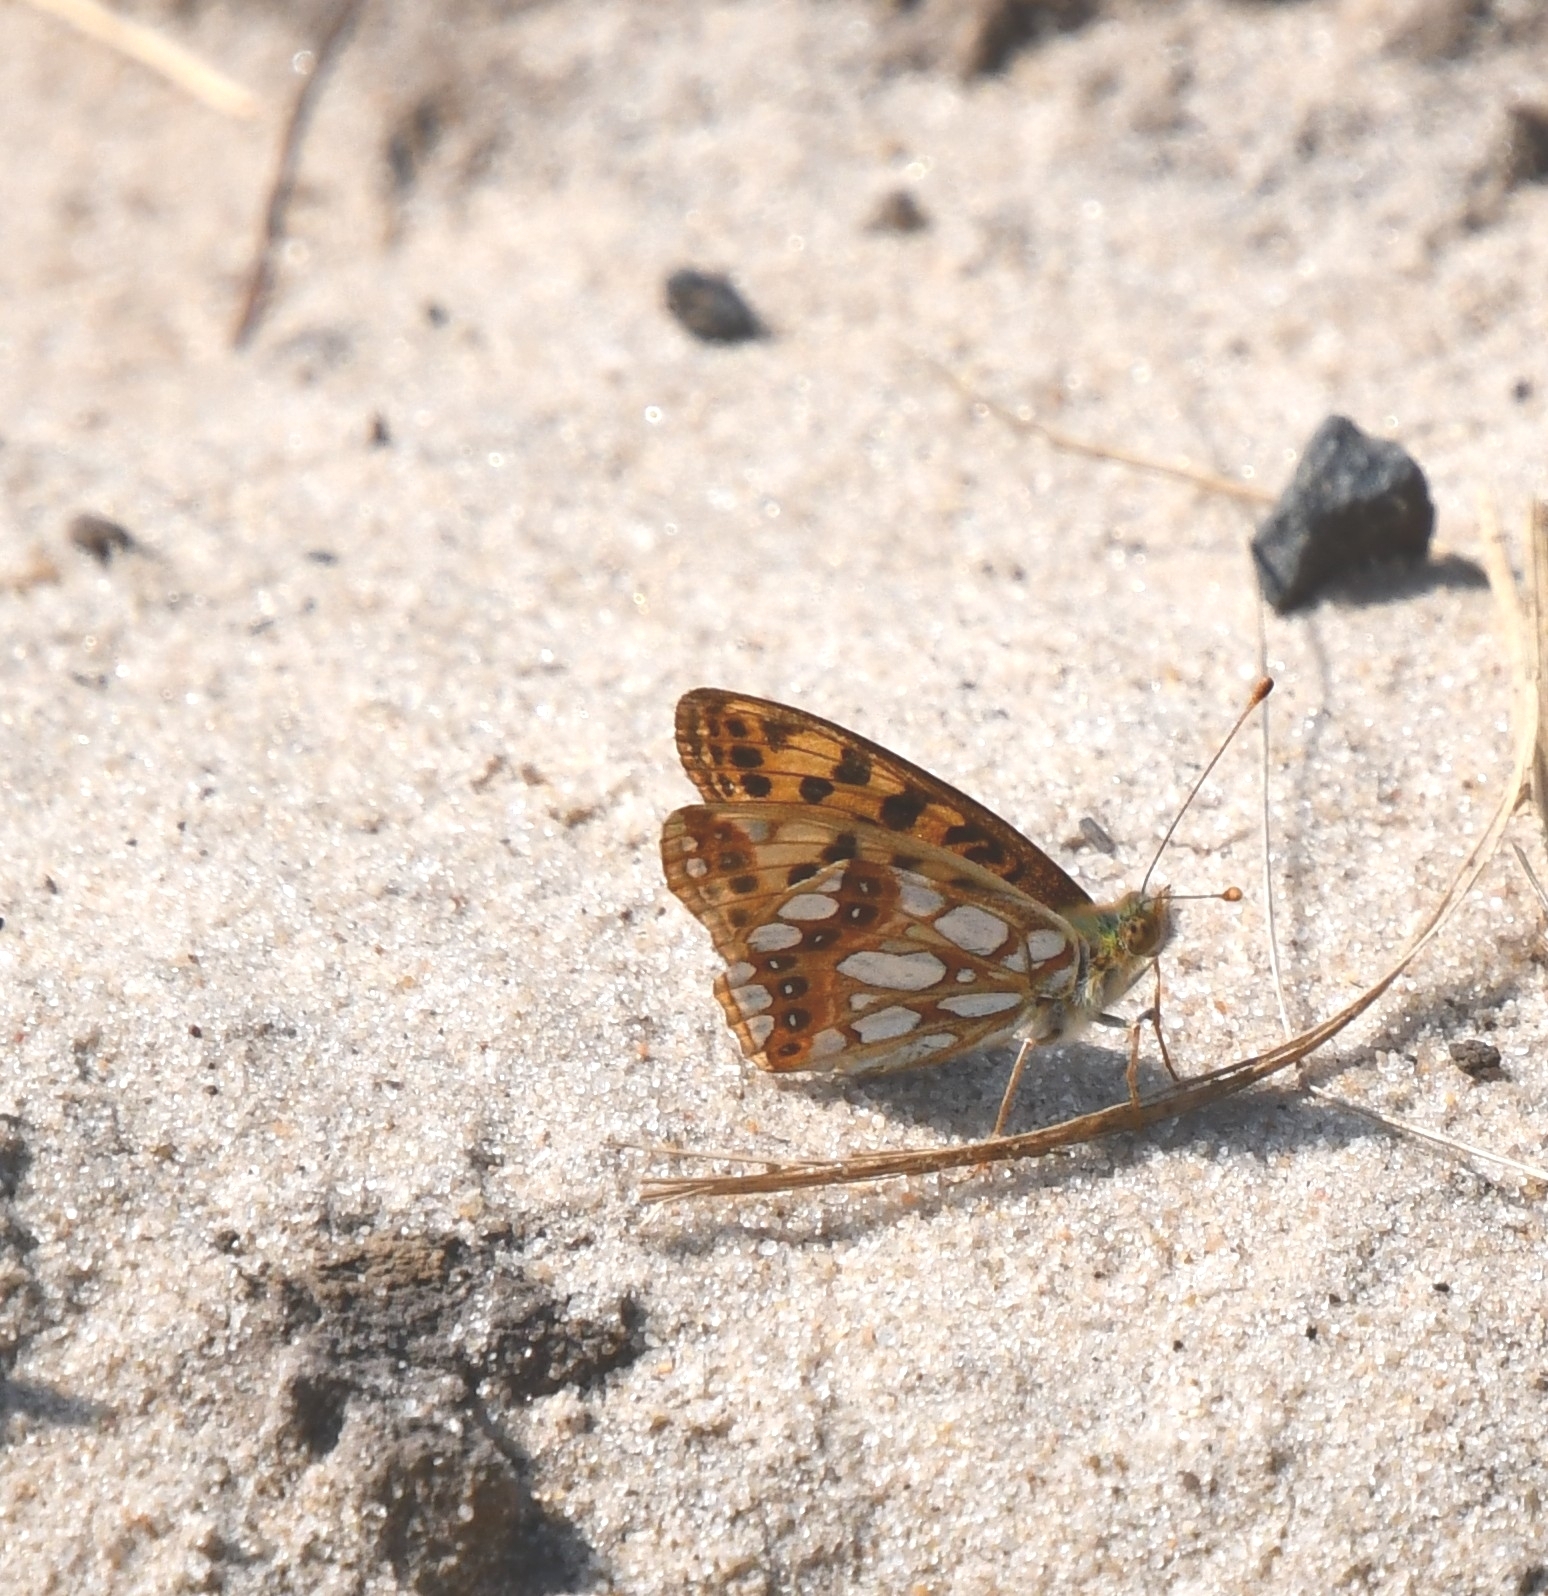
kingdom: Animalia
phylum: Arthropoda
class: Insecta
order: Lepidoptera
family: Nymphalidae
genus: Issoria
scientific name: Issoria lathonia
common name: Queen of spain fritillary
